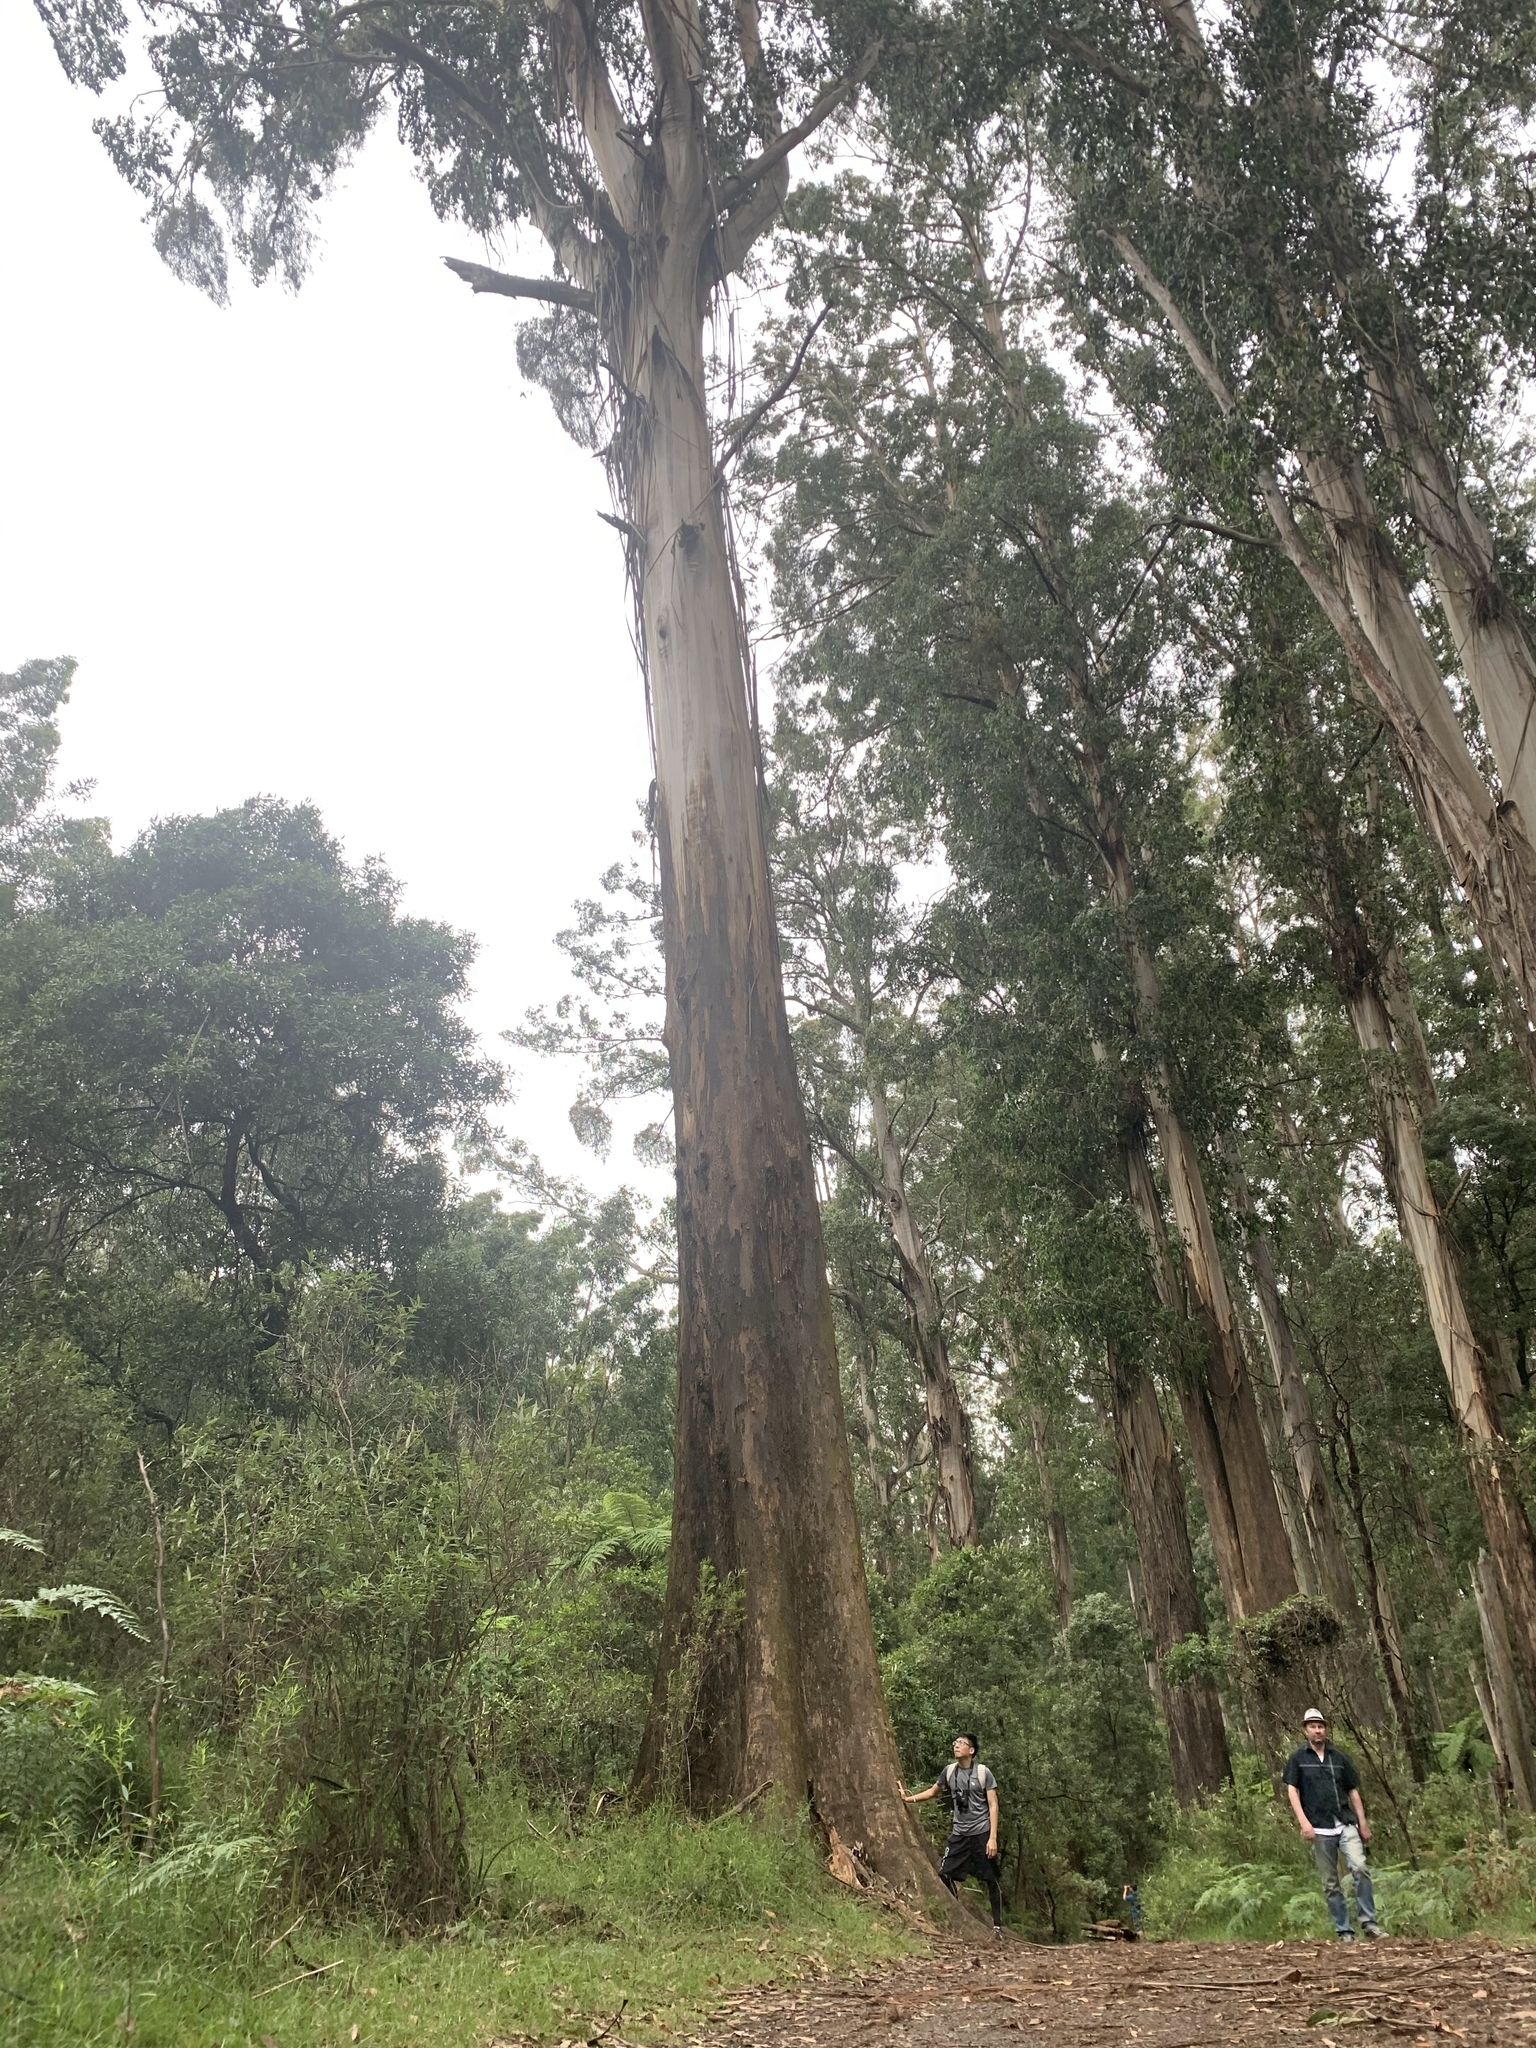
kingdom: Plantae
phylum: Tracheophyta
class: Magnoliopsida
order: Myrtales
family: Myrtaceae
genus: Eucalyptus
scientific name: Eucalyptus regnans
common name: Stringy gum
